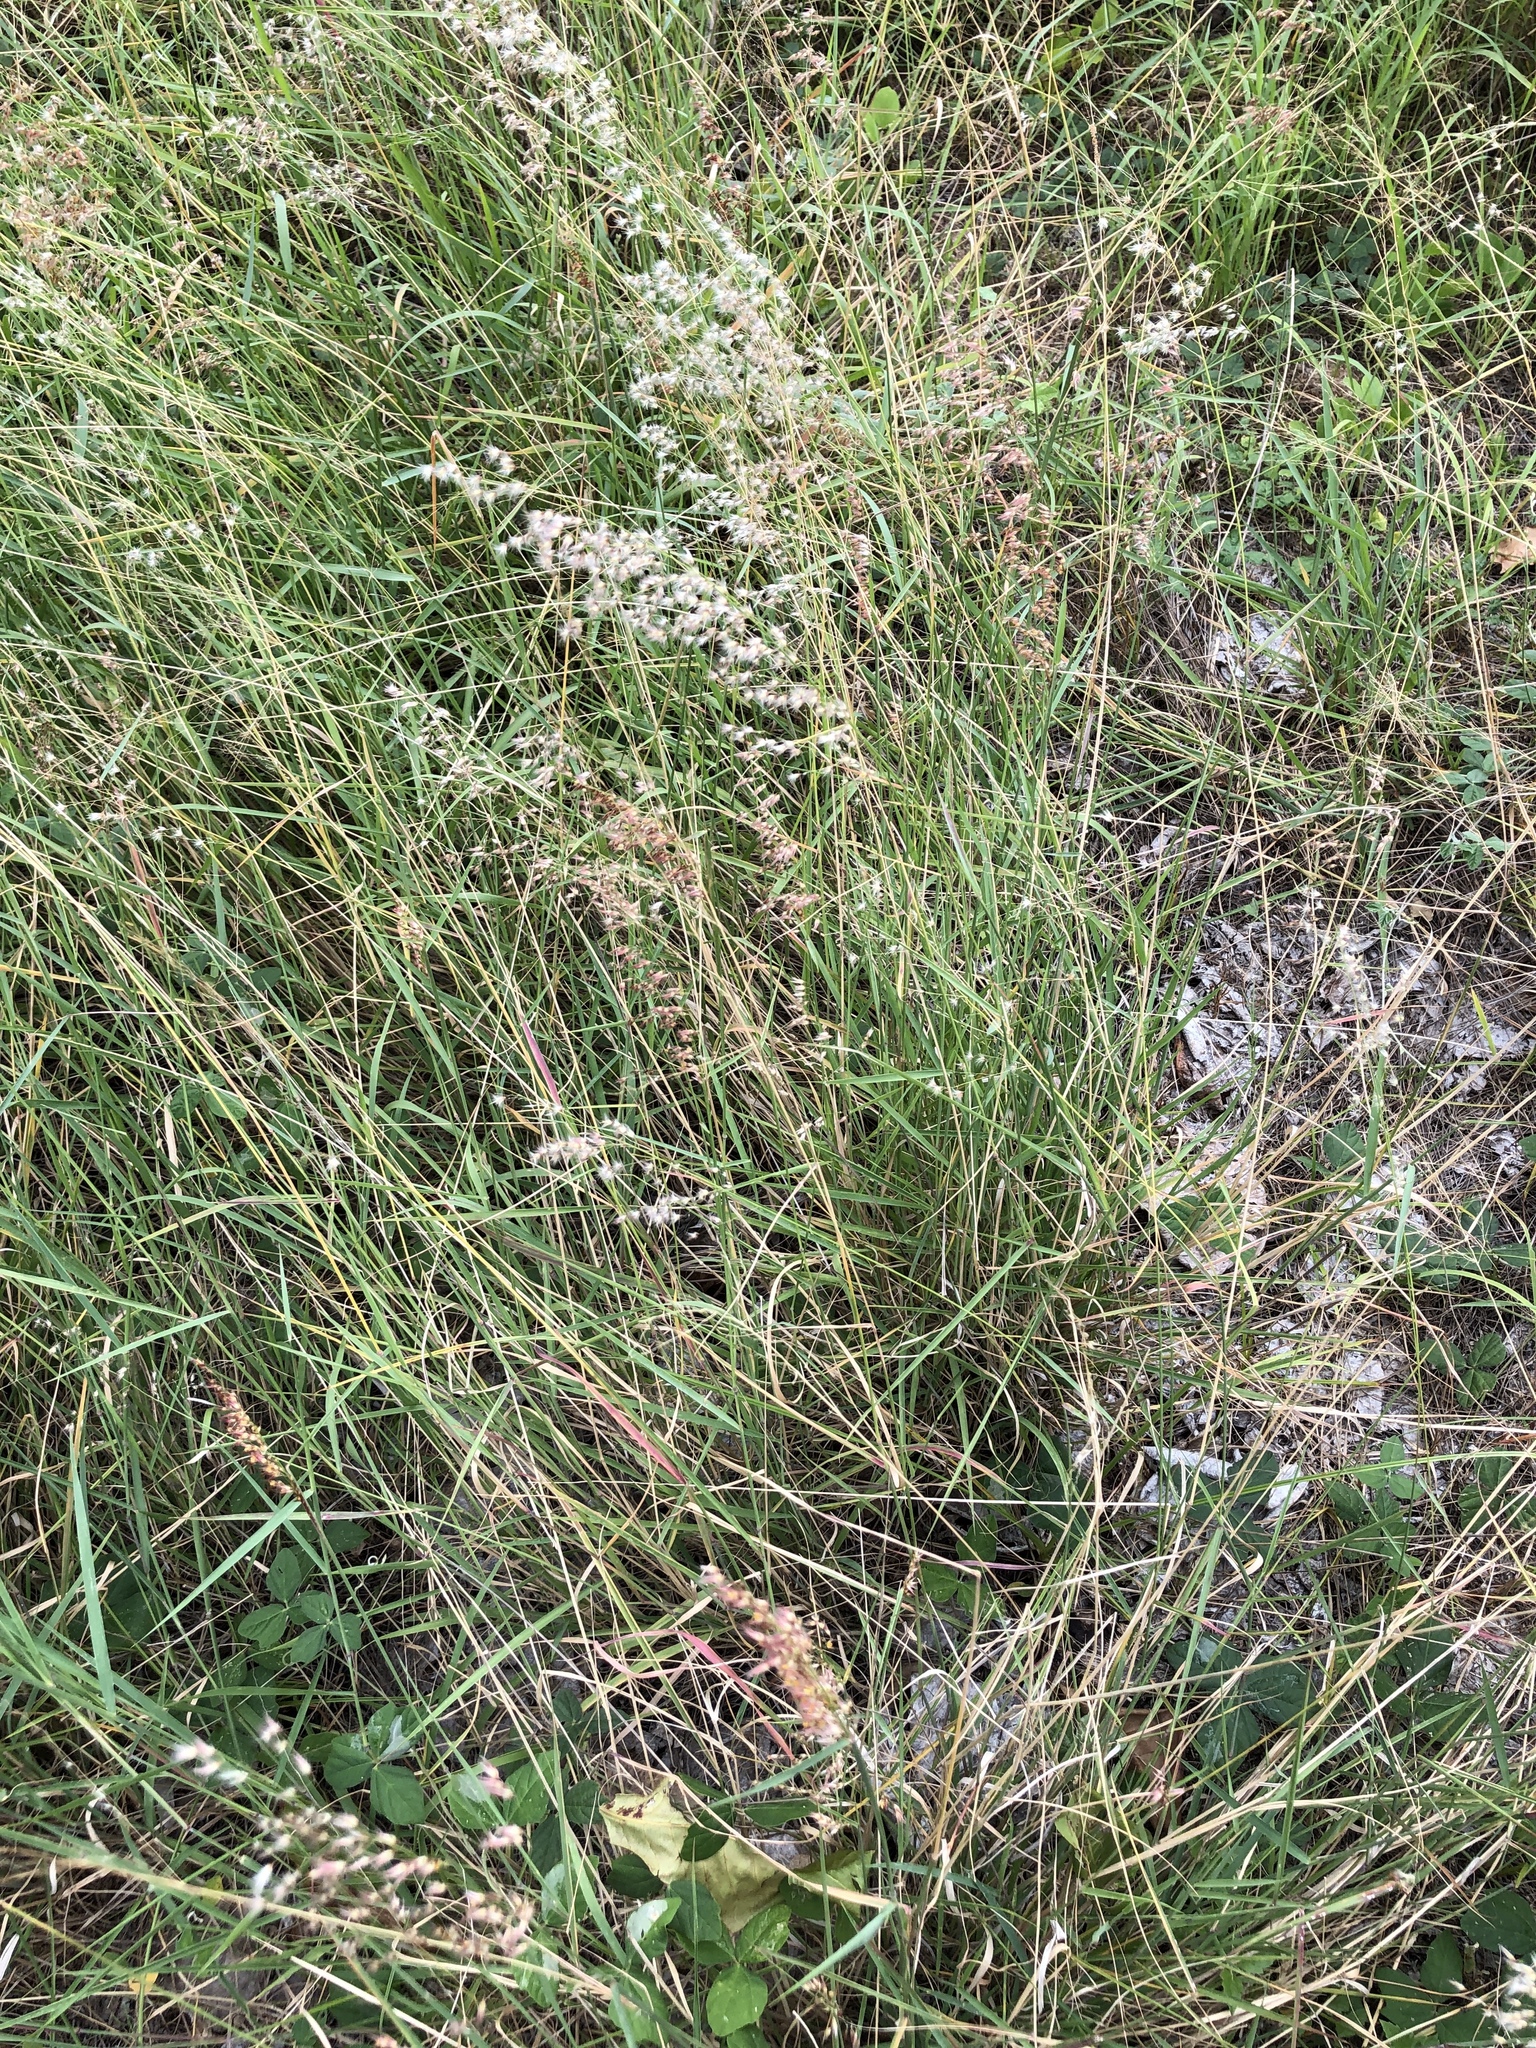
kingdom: Plantae
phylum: Tracheophyta
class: Liliopsida
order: Poales
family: Poaceae
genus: Melinis
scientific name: Melinis repens
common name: Rose natal grass
